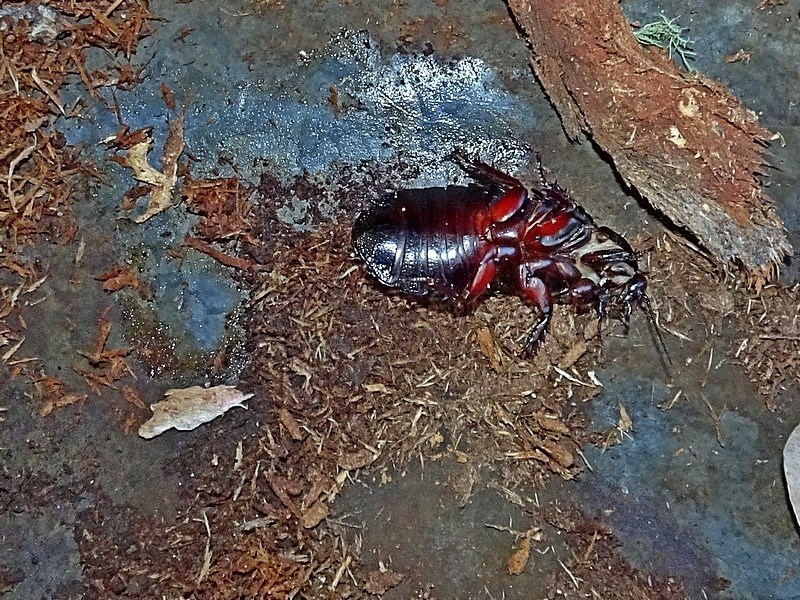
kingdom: Animalia
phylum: Arthropoda
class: Insecta
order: Blattodea
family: Blaberidae
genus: Panesthia
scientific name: Panesthia australis
